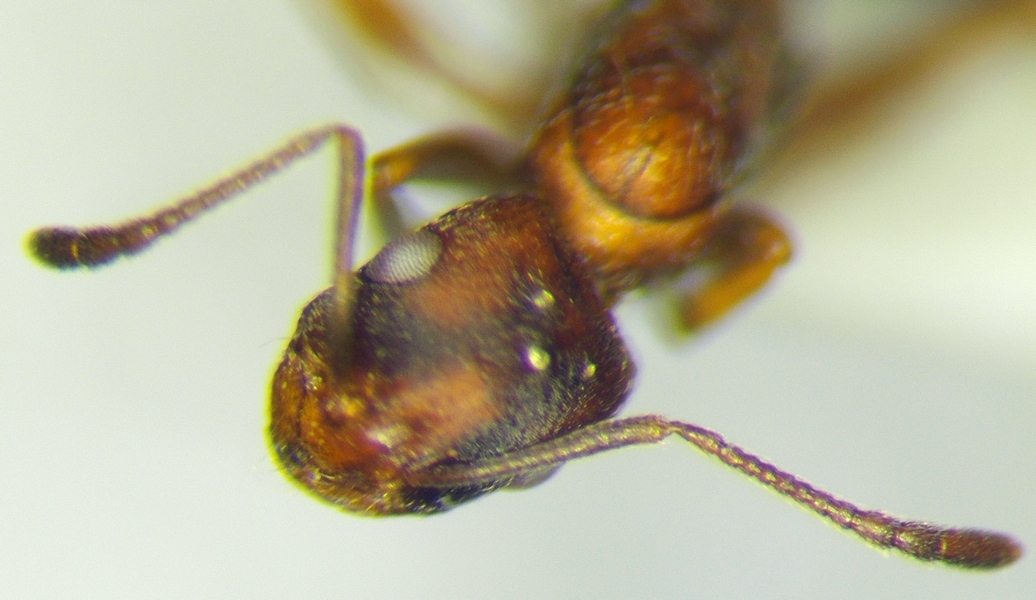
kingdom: Animalia
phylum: Arthropoda
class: Insecta
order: Hymenoptera
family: Formicidae
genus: Monomorium
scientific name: Monomorium bicolor
